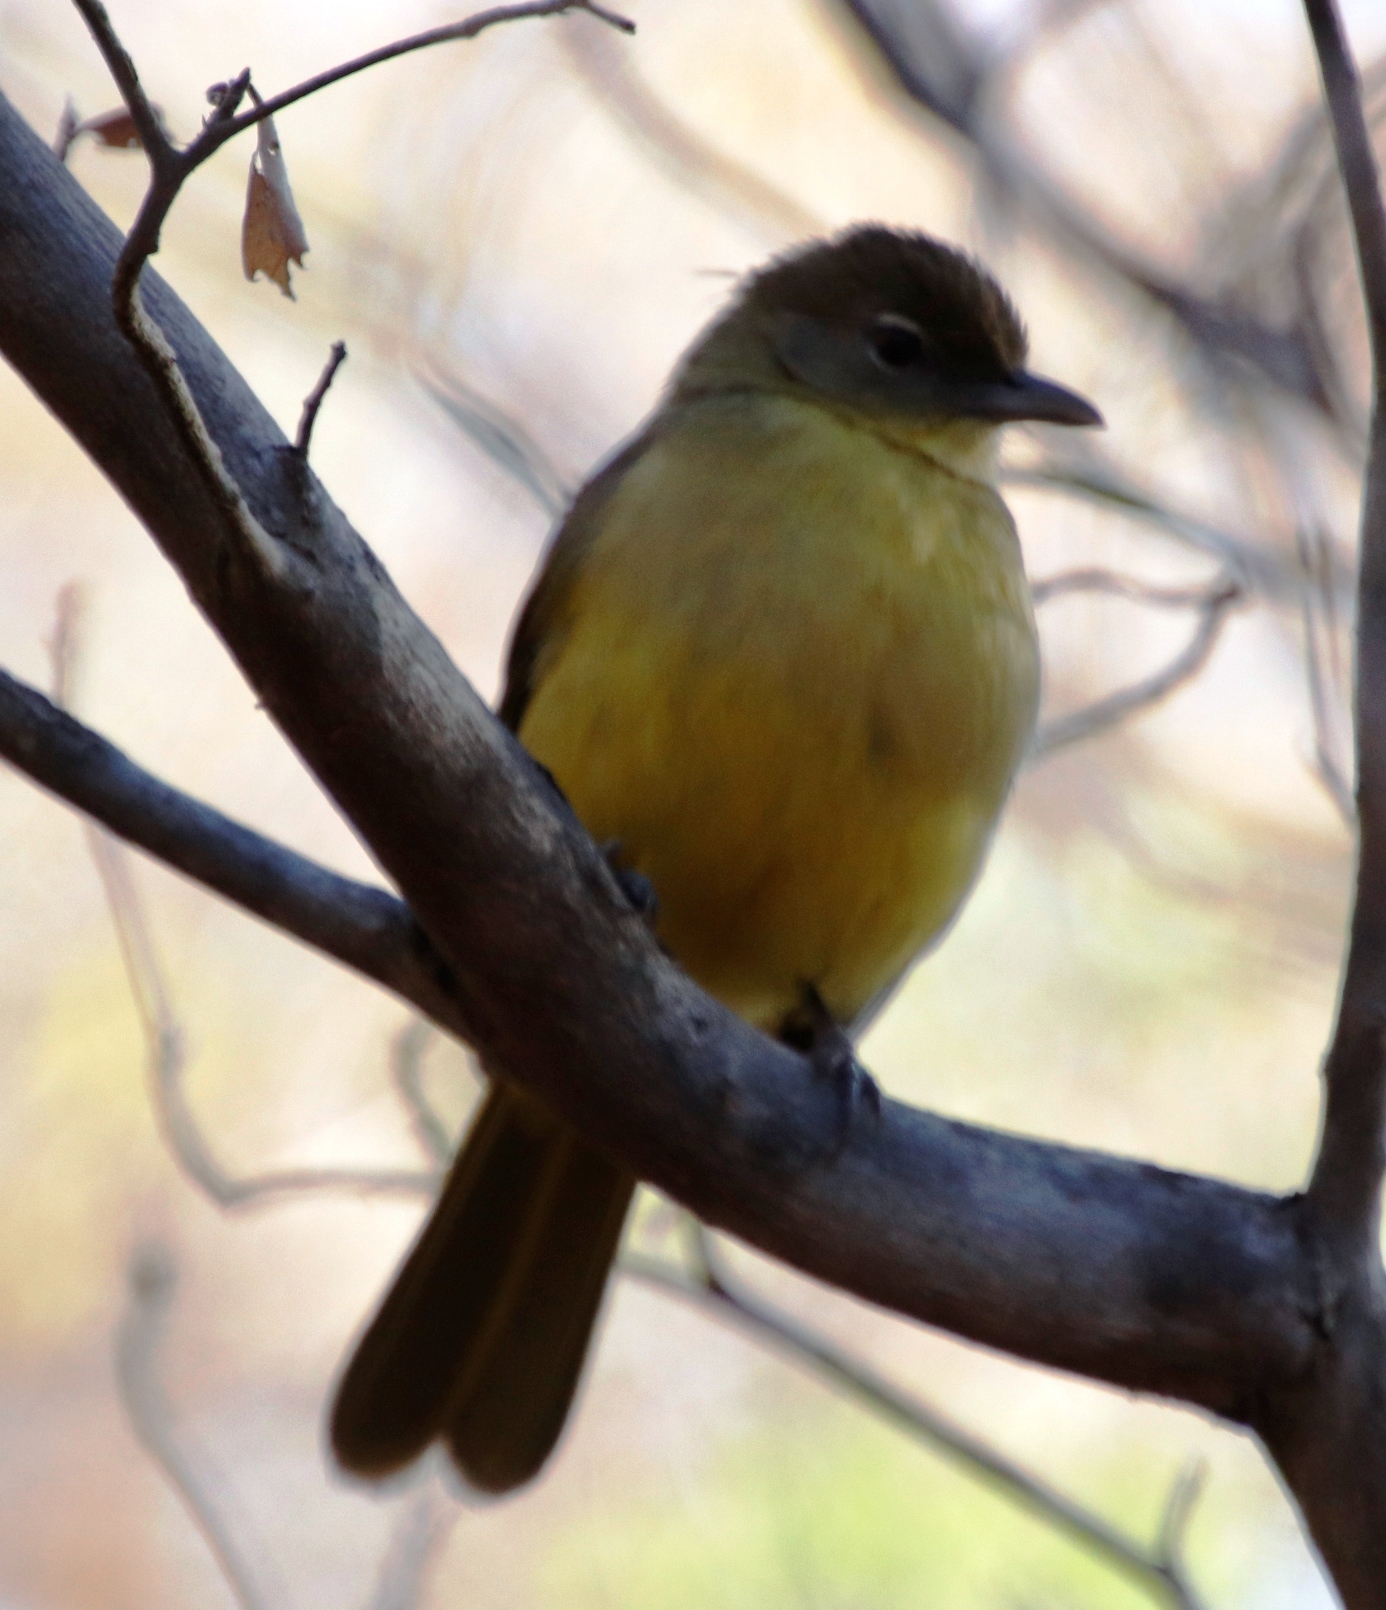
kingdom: Animalia
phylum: Chordata
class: Aves
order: Passeriformes
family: Pycnonotidae
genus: Chlorocichla
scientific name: Chlorocichla flaviventris
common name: Yellow-bellied greenbul
